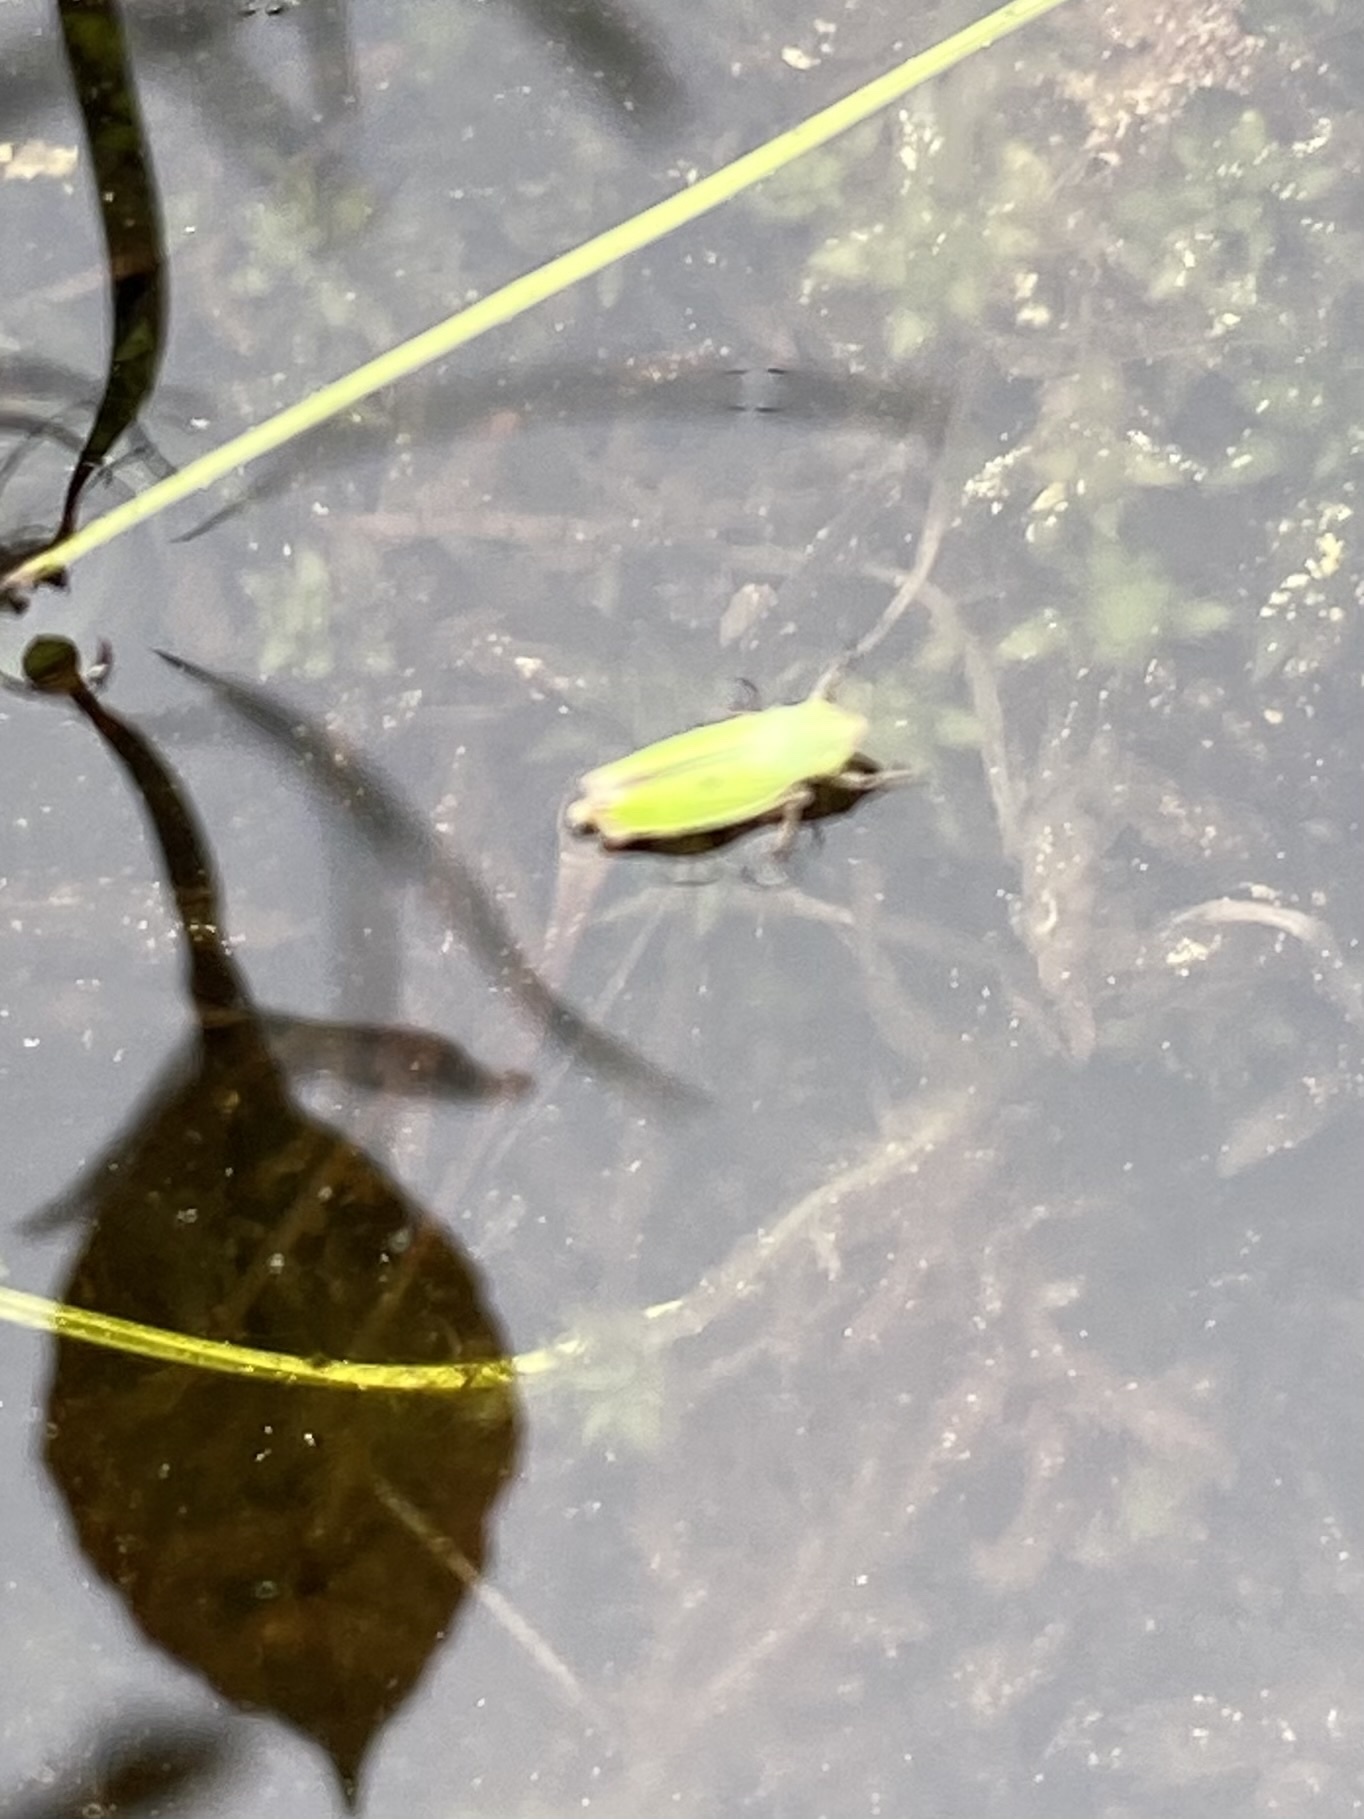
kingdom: Animalia
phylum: Arthropoda
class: Insecta
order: Hemiptera
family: Cicadellidae
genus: Helochara
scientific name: Helochara communis
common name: Bog leafhopper
